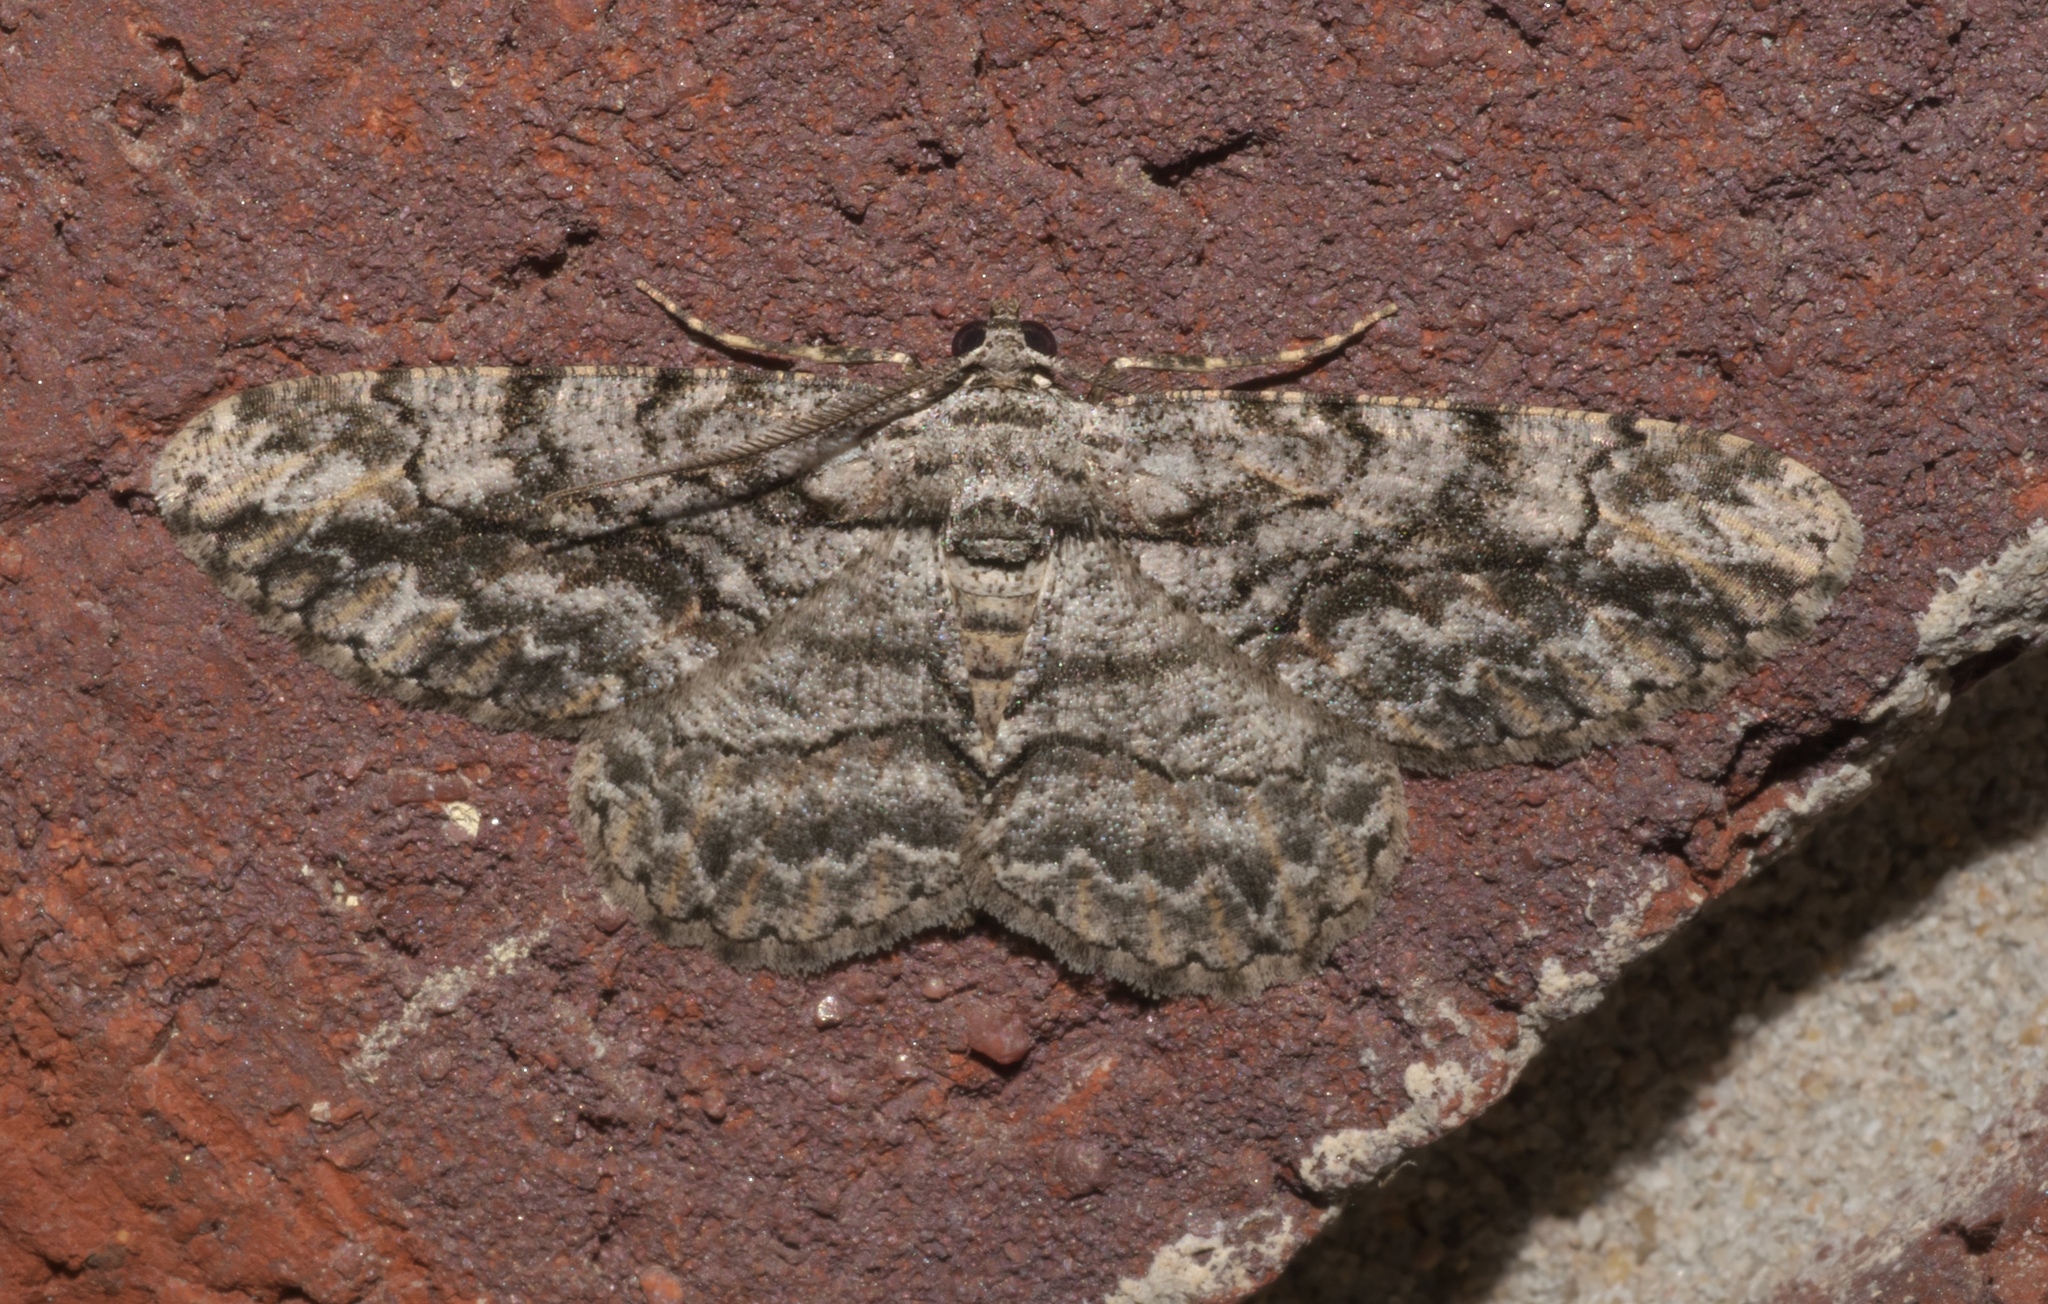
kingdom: Animalia
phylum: Arthropoda
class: Insecta
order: Lepidoptera
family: Geometridae
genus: Anavitrinella
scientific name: Anavitrinella pampinaria
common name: Common gray
